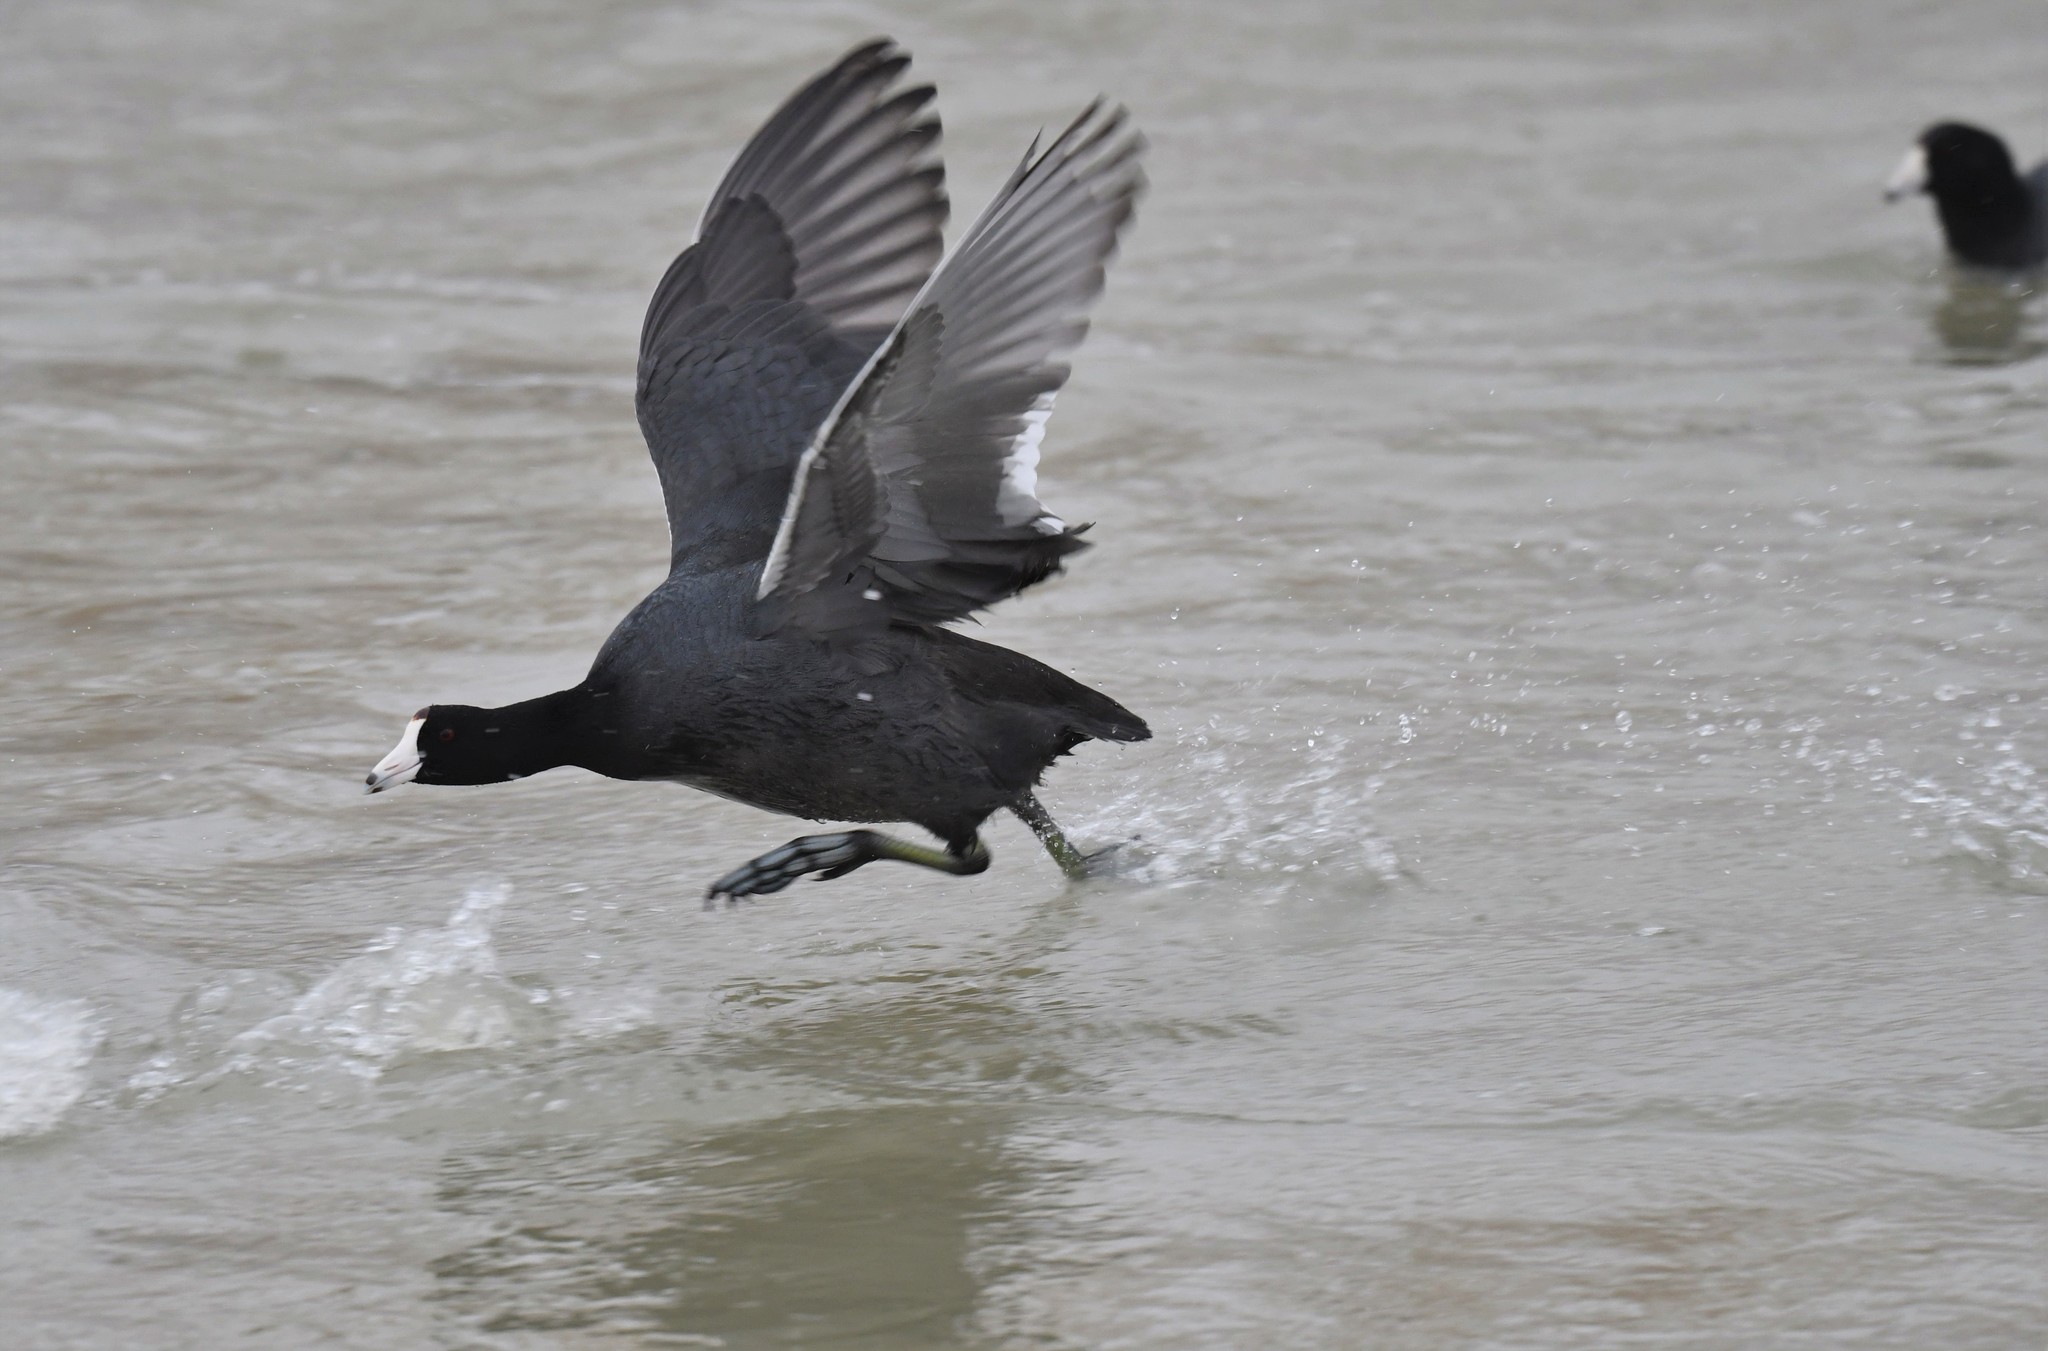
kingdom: Animalia
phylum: Chordata
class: Aves
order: Gruiformes
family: Rallidae
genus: Fulica
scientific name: Fulica americana
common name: American coot
